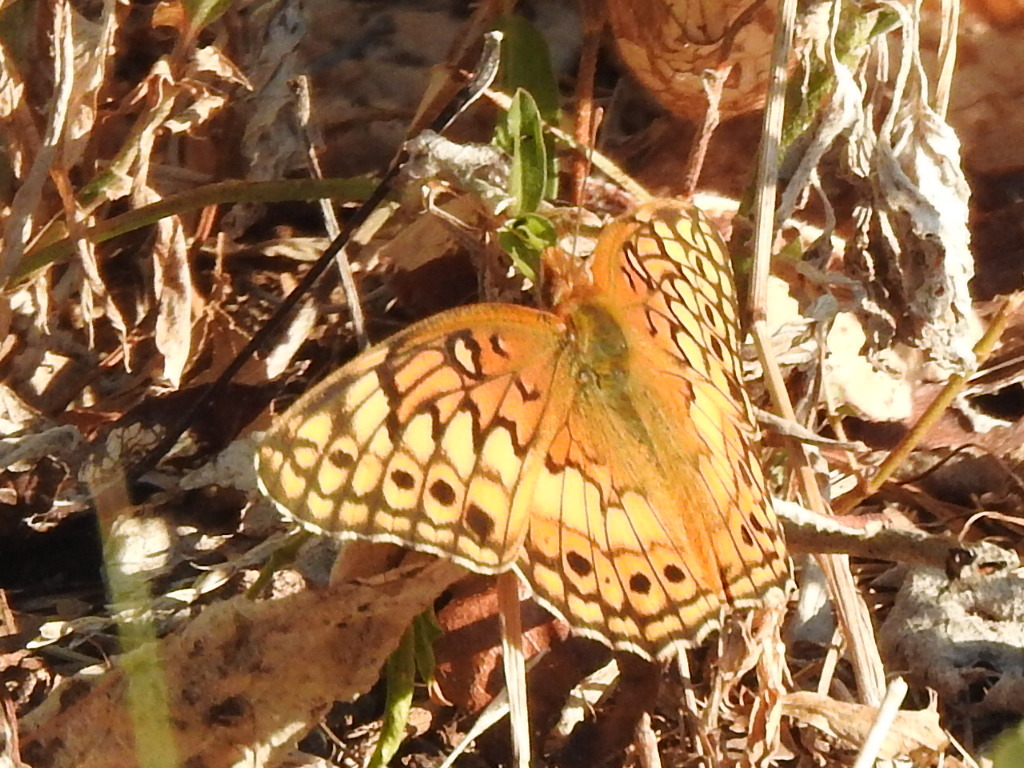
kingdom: Animalia
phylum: Arthropoda
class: Insecta
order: Lepidoptera
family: Nymphalidae
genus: Euptoieta
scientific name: Euptoieta claudia
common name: Variegated fritillary
